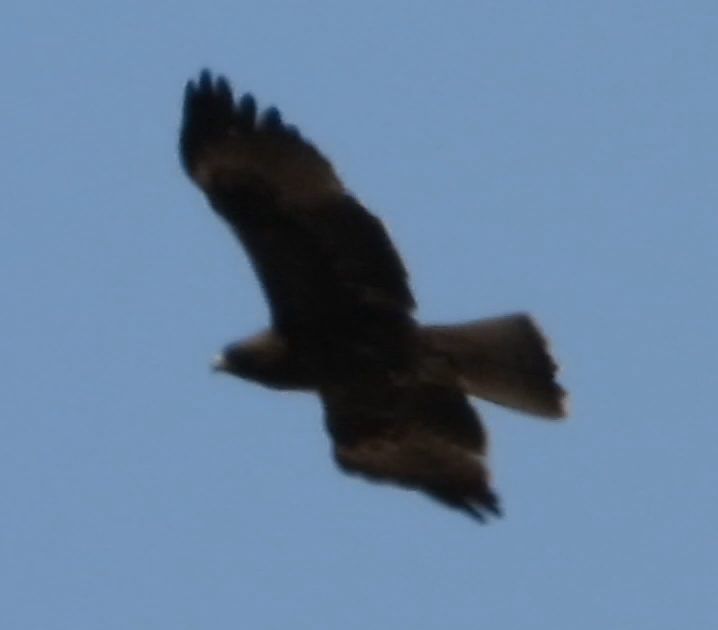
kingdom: Animalia
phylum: Chordata
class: Aves
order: Accipitriformes
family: Accipitridae
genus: Hieraaetus
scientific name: Hieraaetus pennatus
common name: Booted eagle
